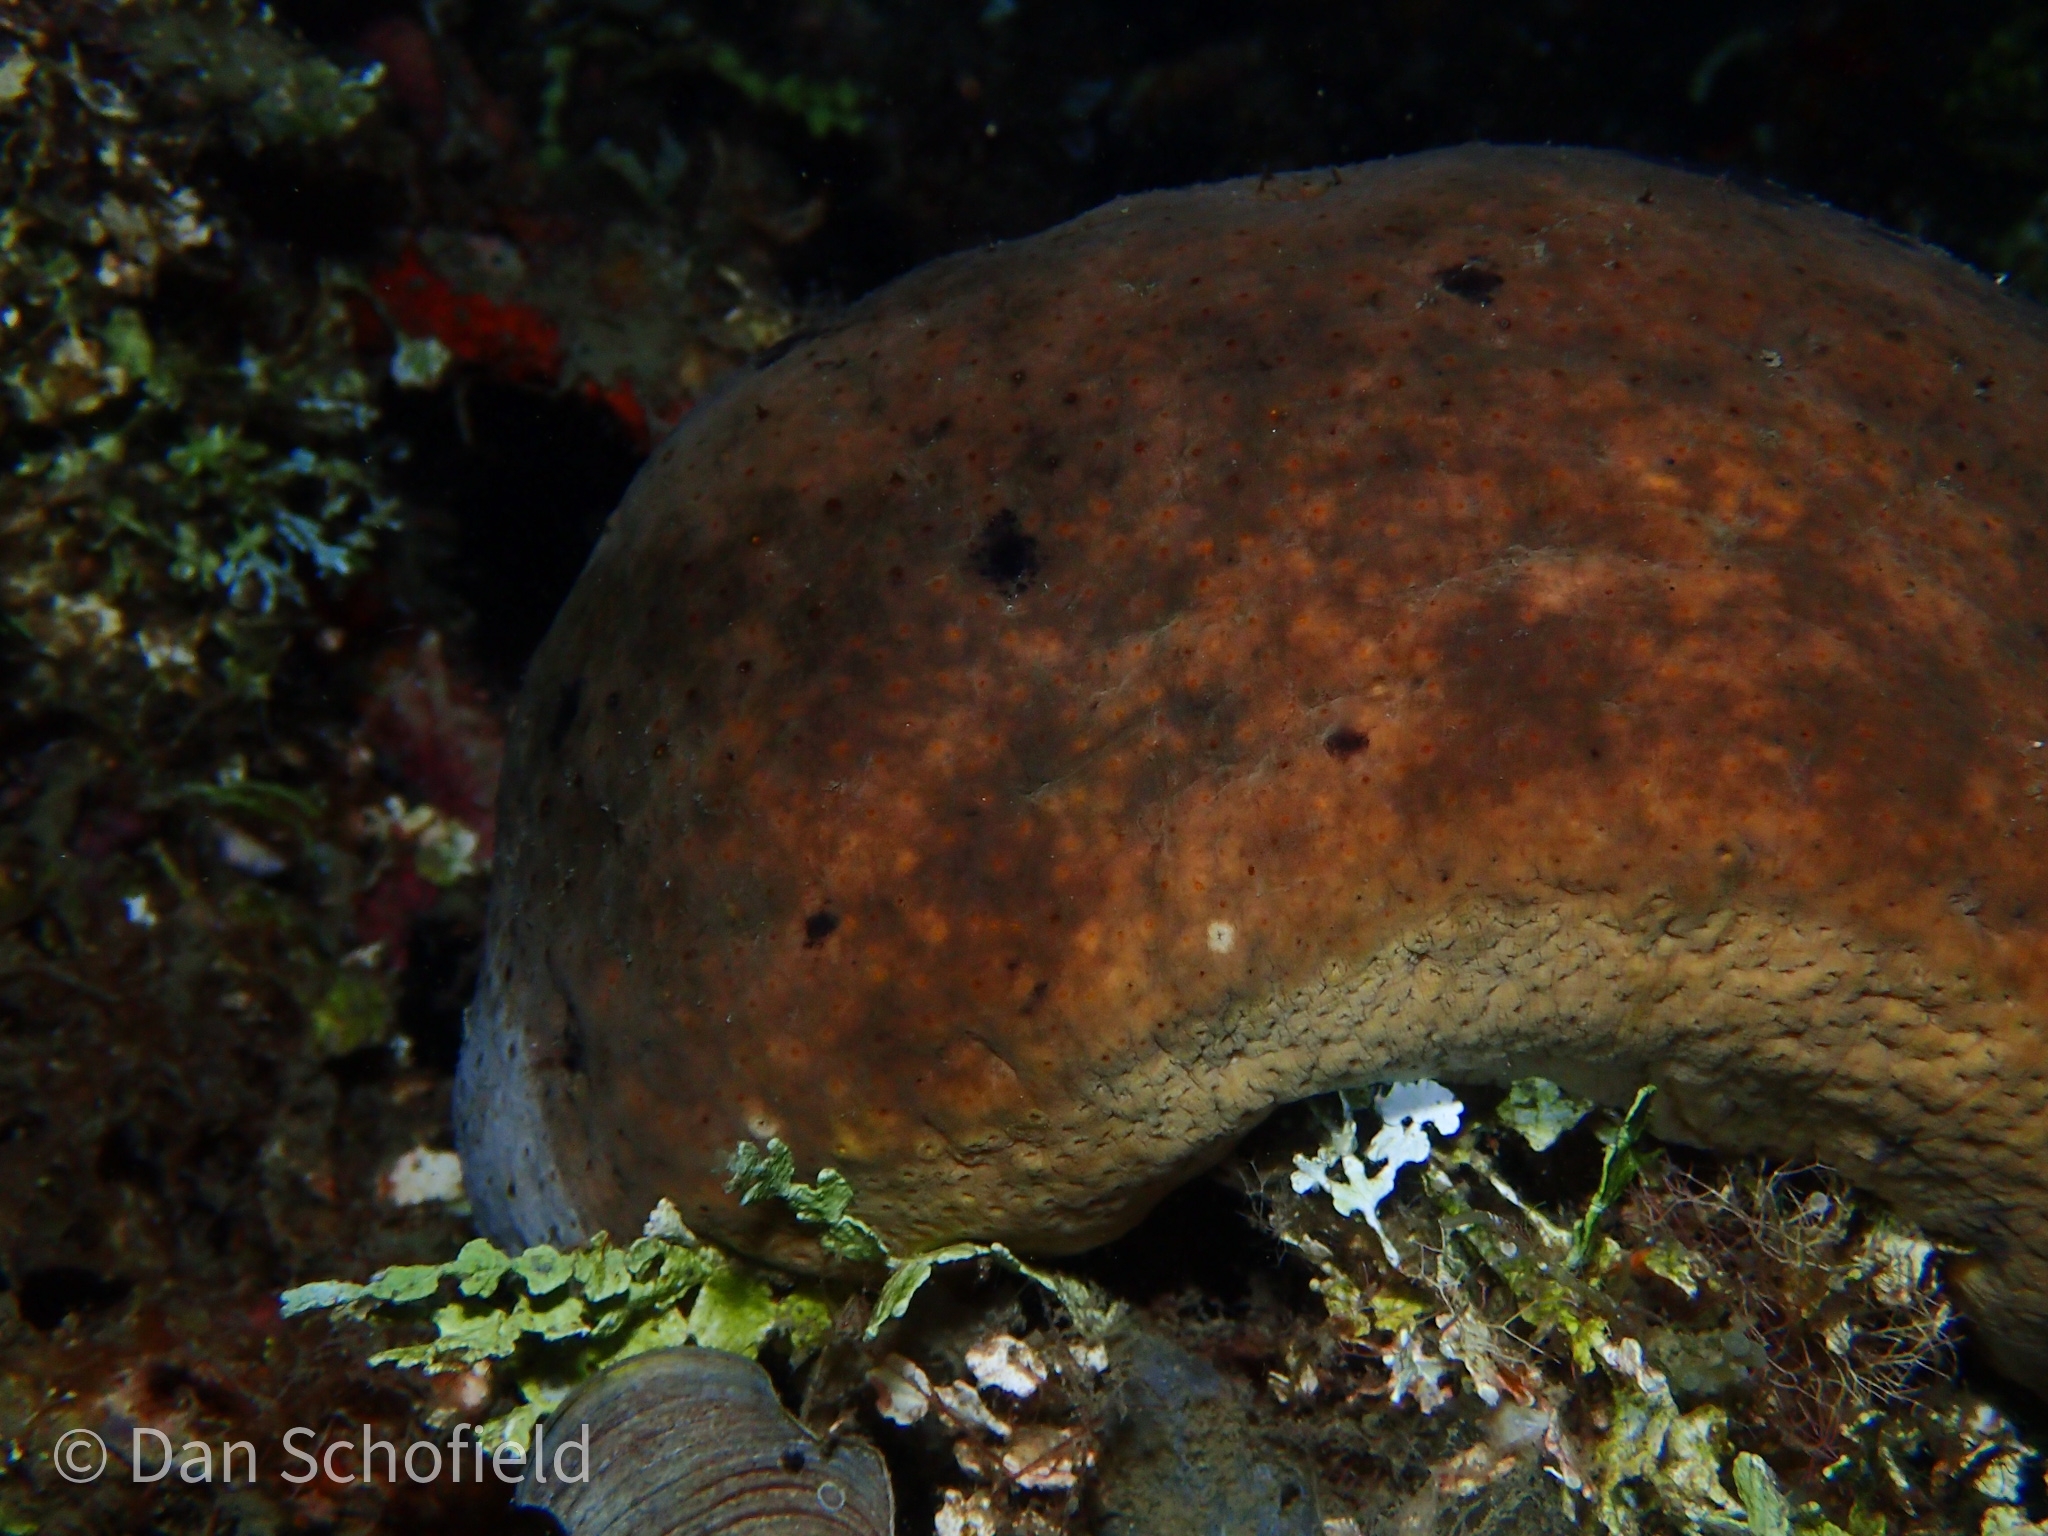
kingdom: Animalia
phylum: Echinodermata
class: Holothuroidea
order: Holothuriida
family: Holothuriidae
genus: Actinopyga
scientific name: Actinopyga lecanora
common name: Stonefish
